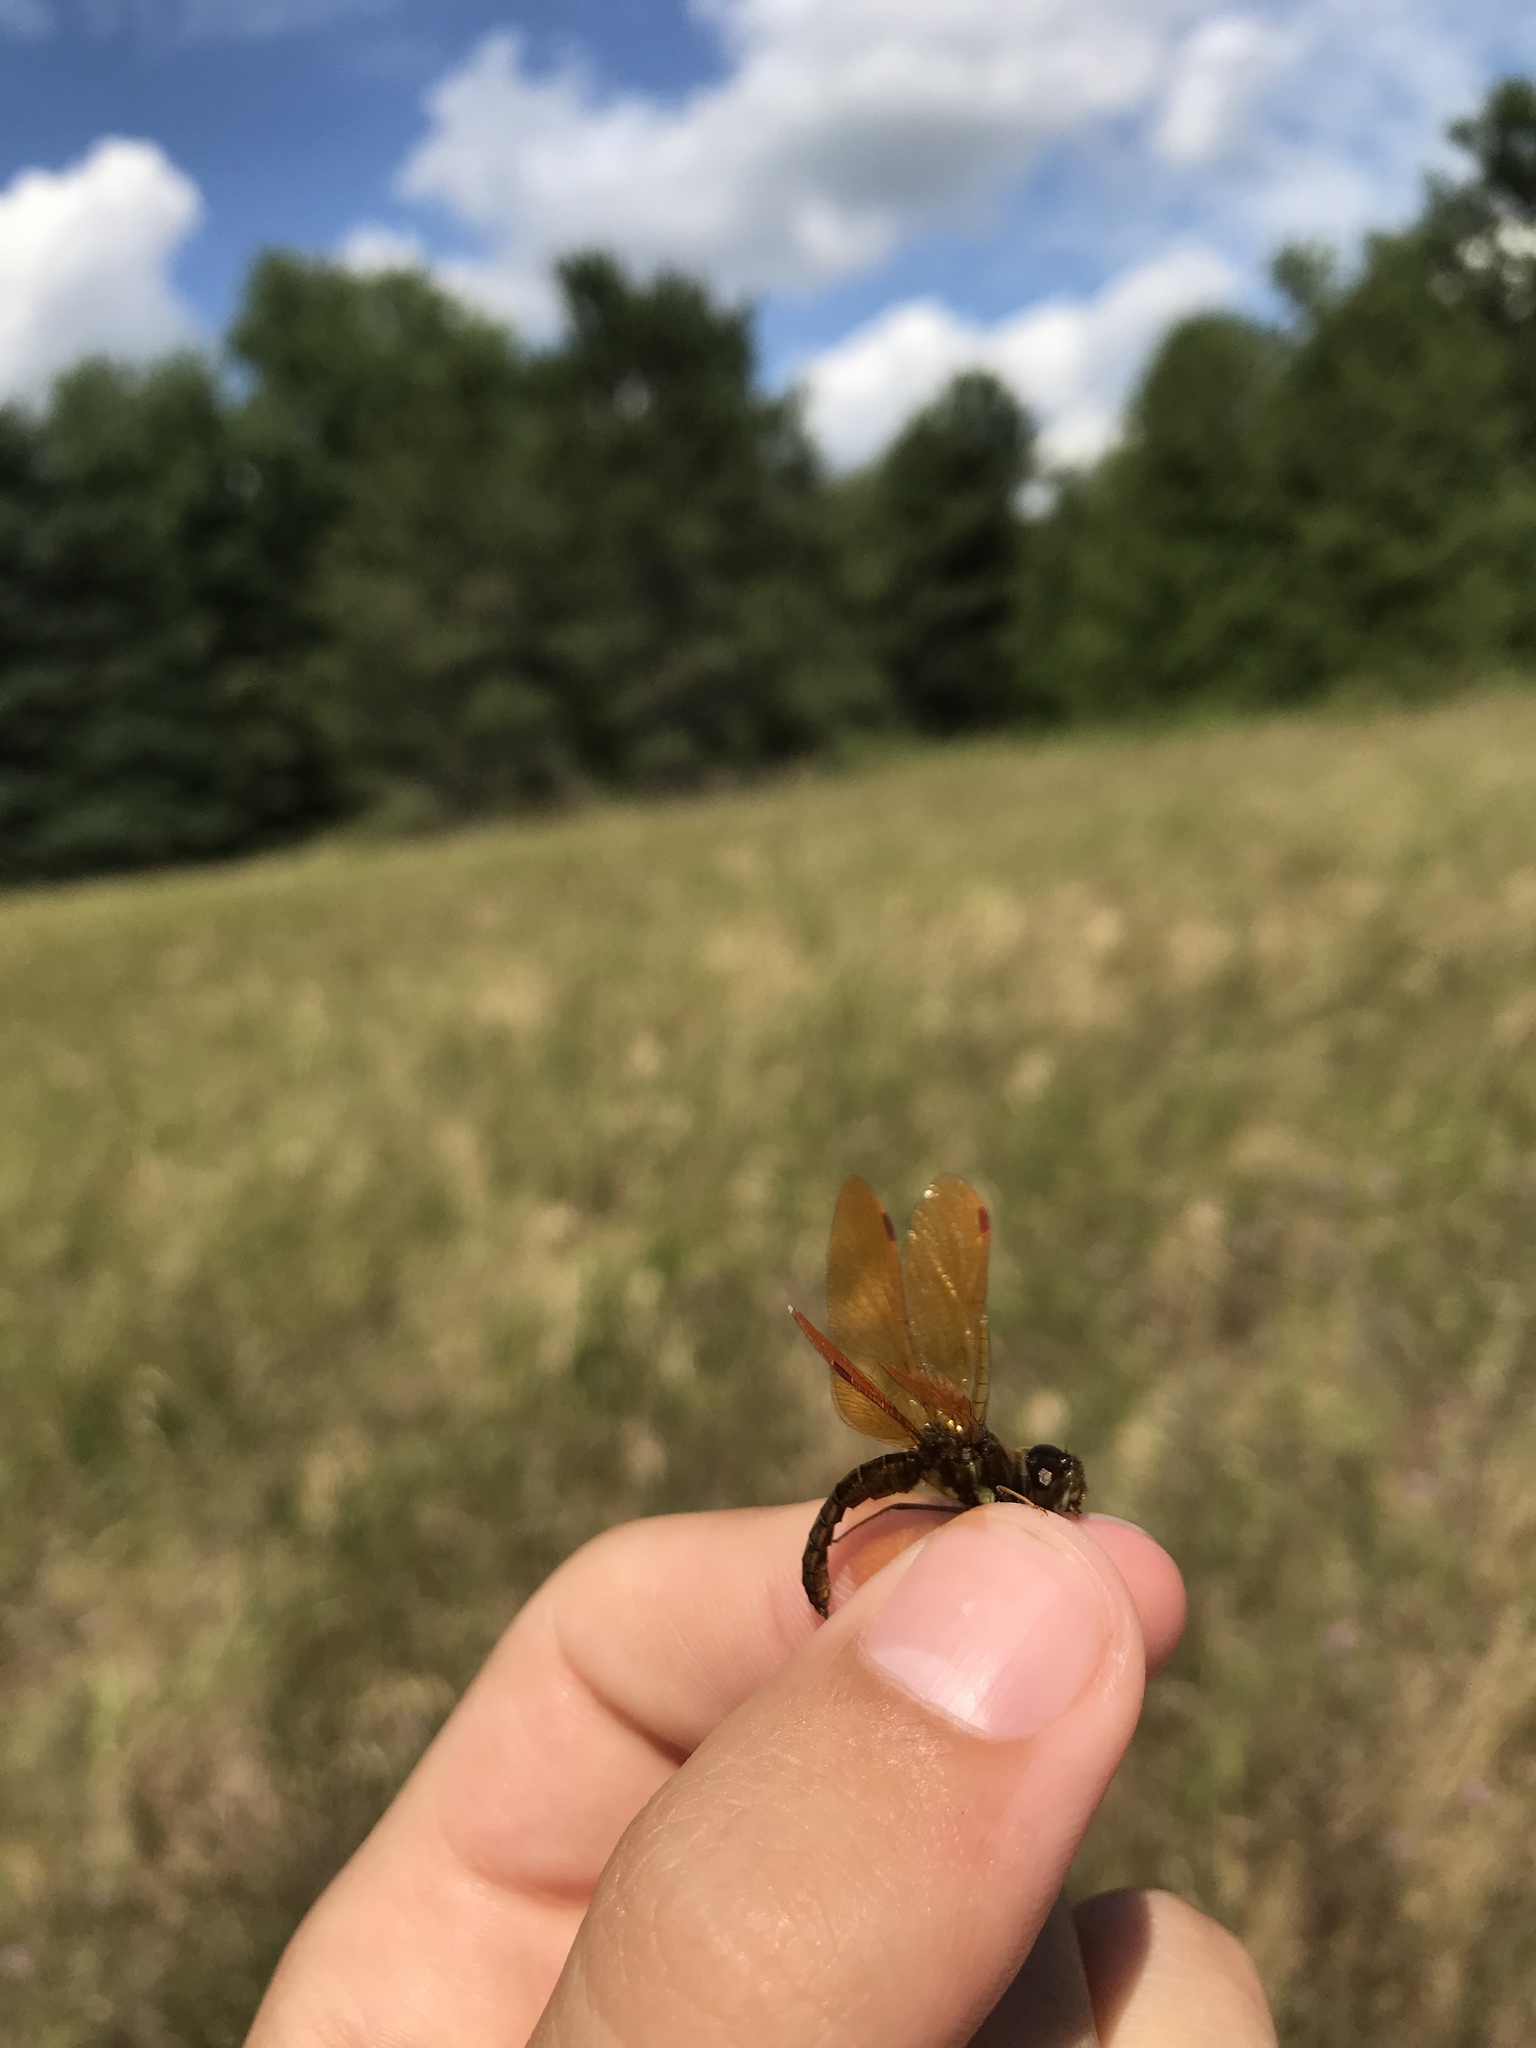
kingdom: Animalia
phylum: Arthropoda
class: Insecta
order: Odonata
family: Libellulidae
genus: Perithemis
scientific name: Perithemis tenera
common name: Eastern amberwing
